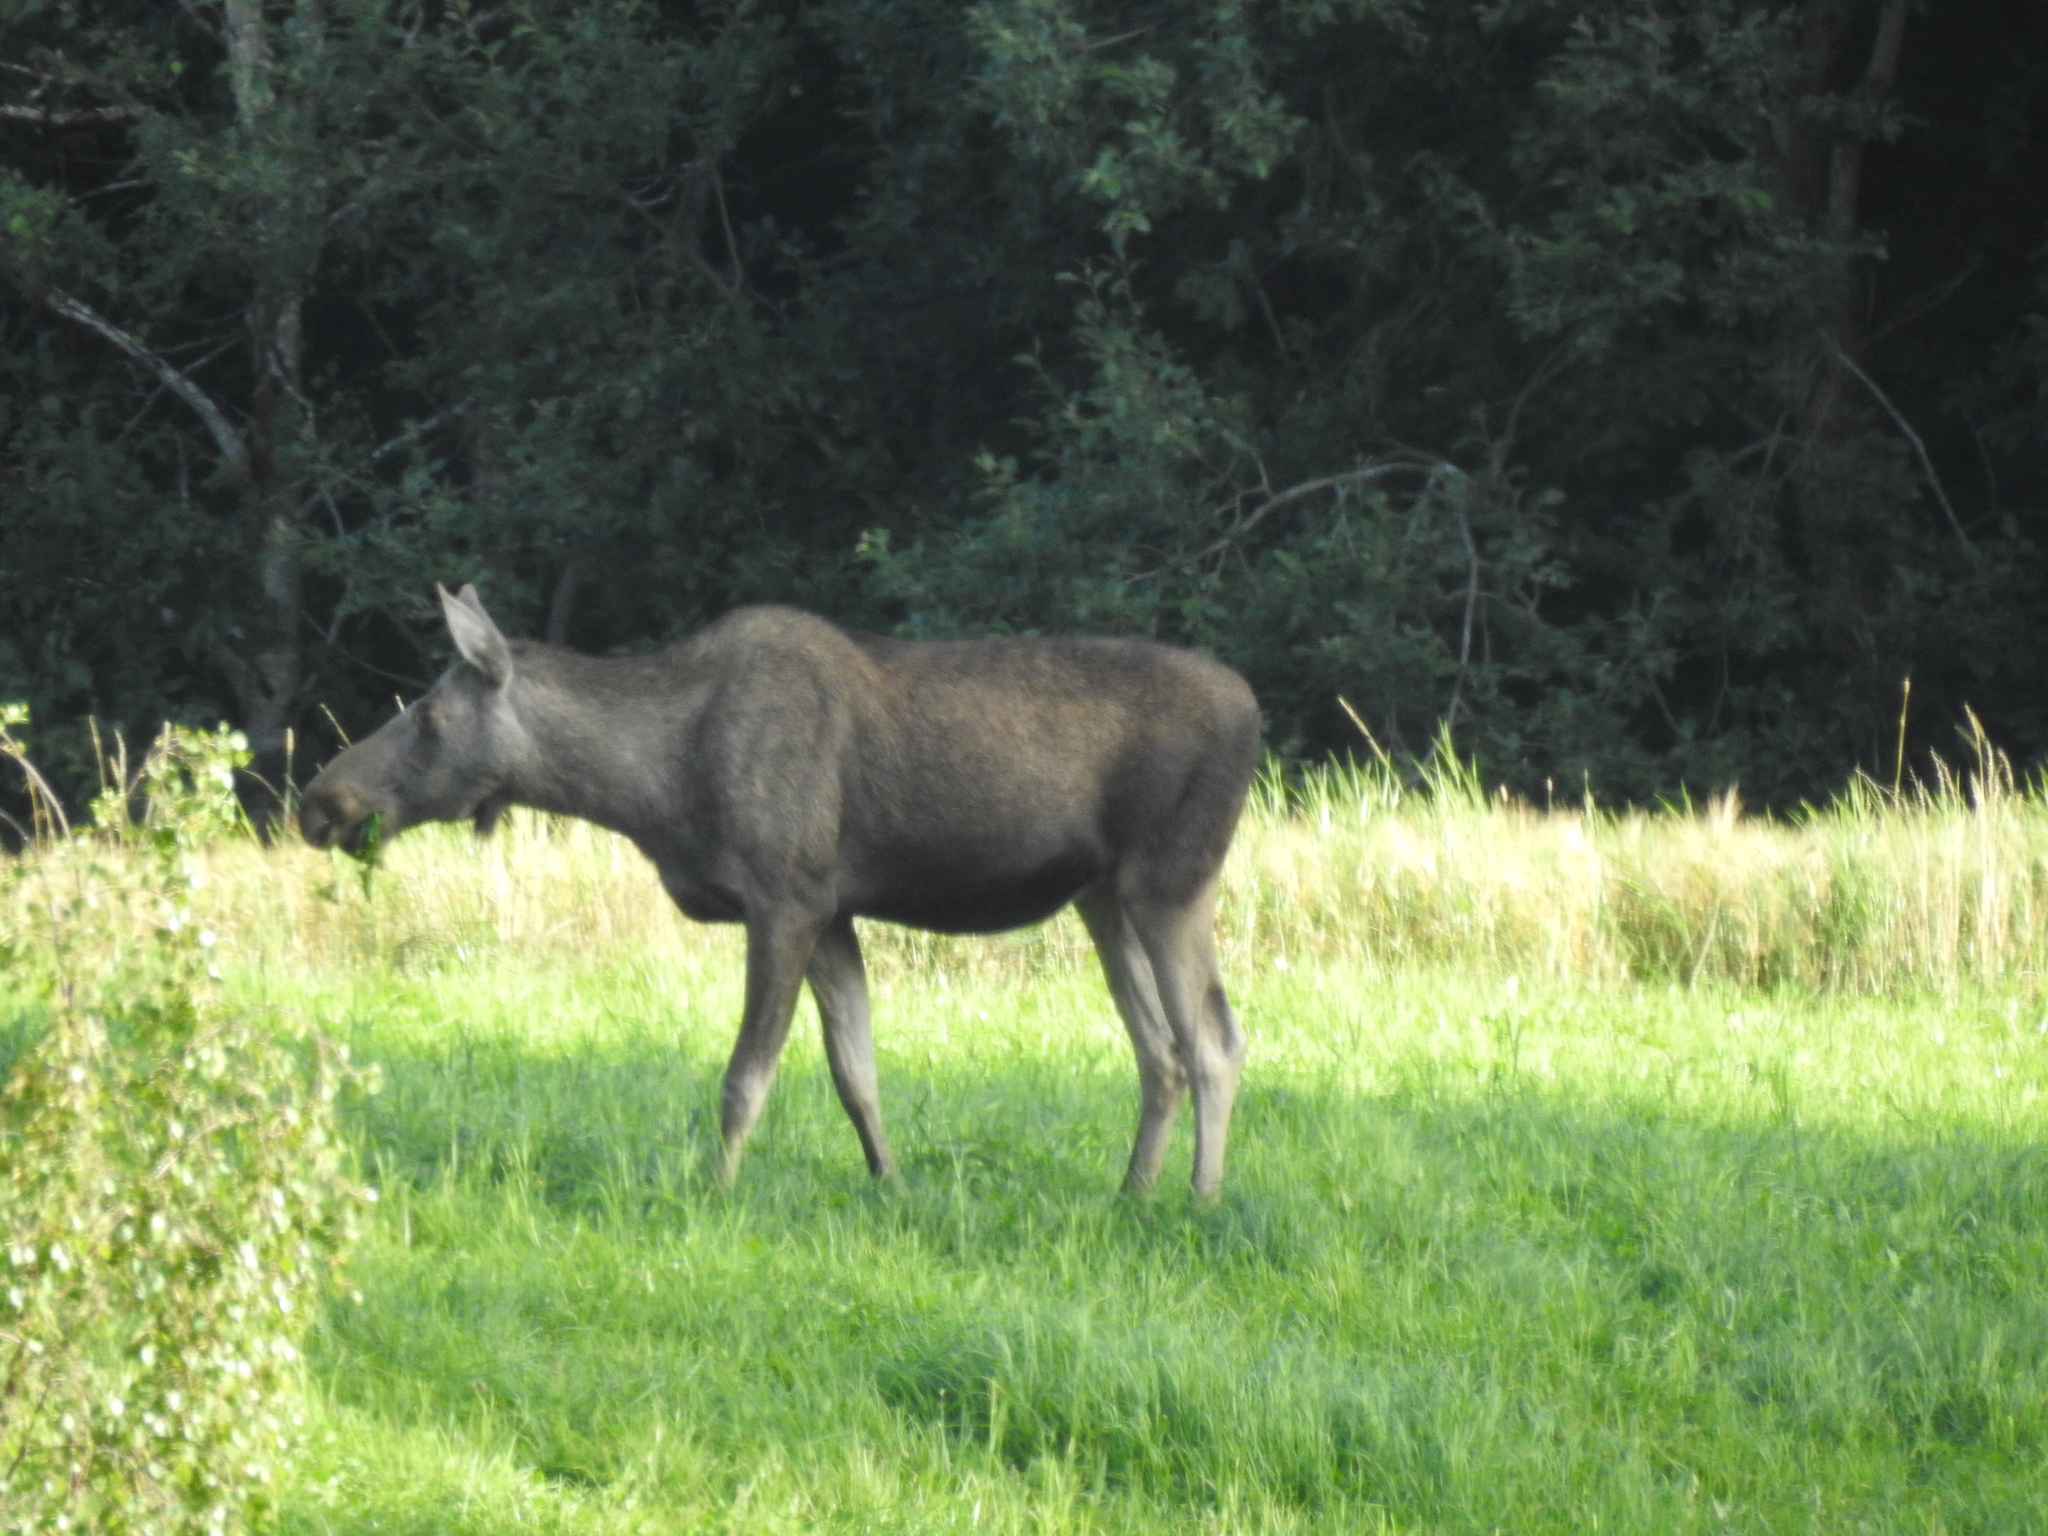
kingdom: Animalia
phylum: Chordata
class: Mammalia
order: Artiodactyla
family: Cervidae
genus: Alces
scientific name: Alces alces
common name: Moose
